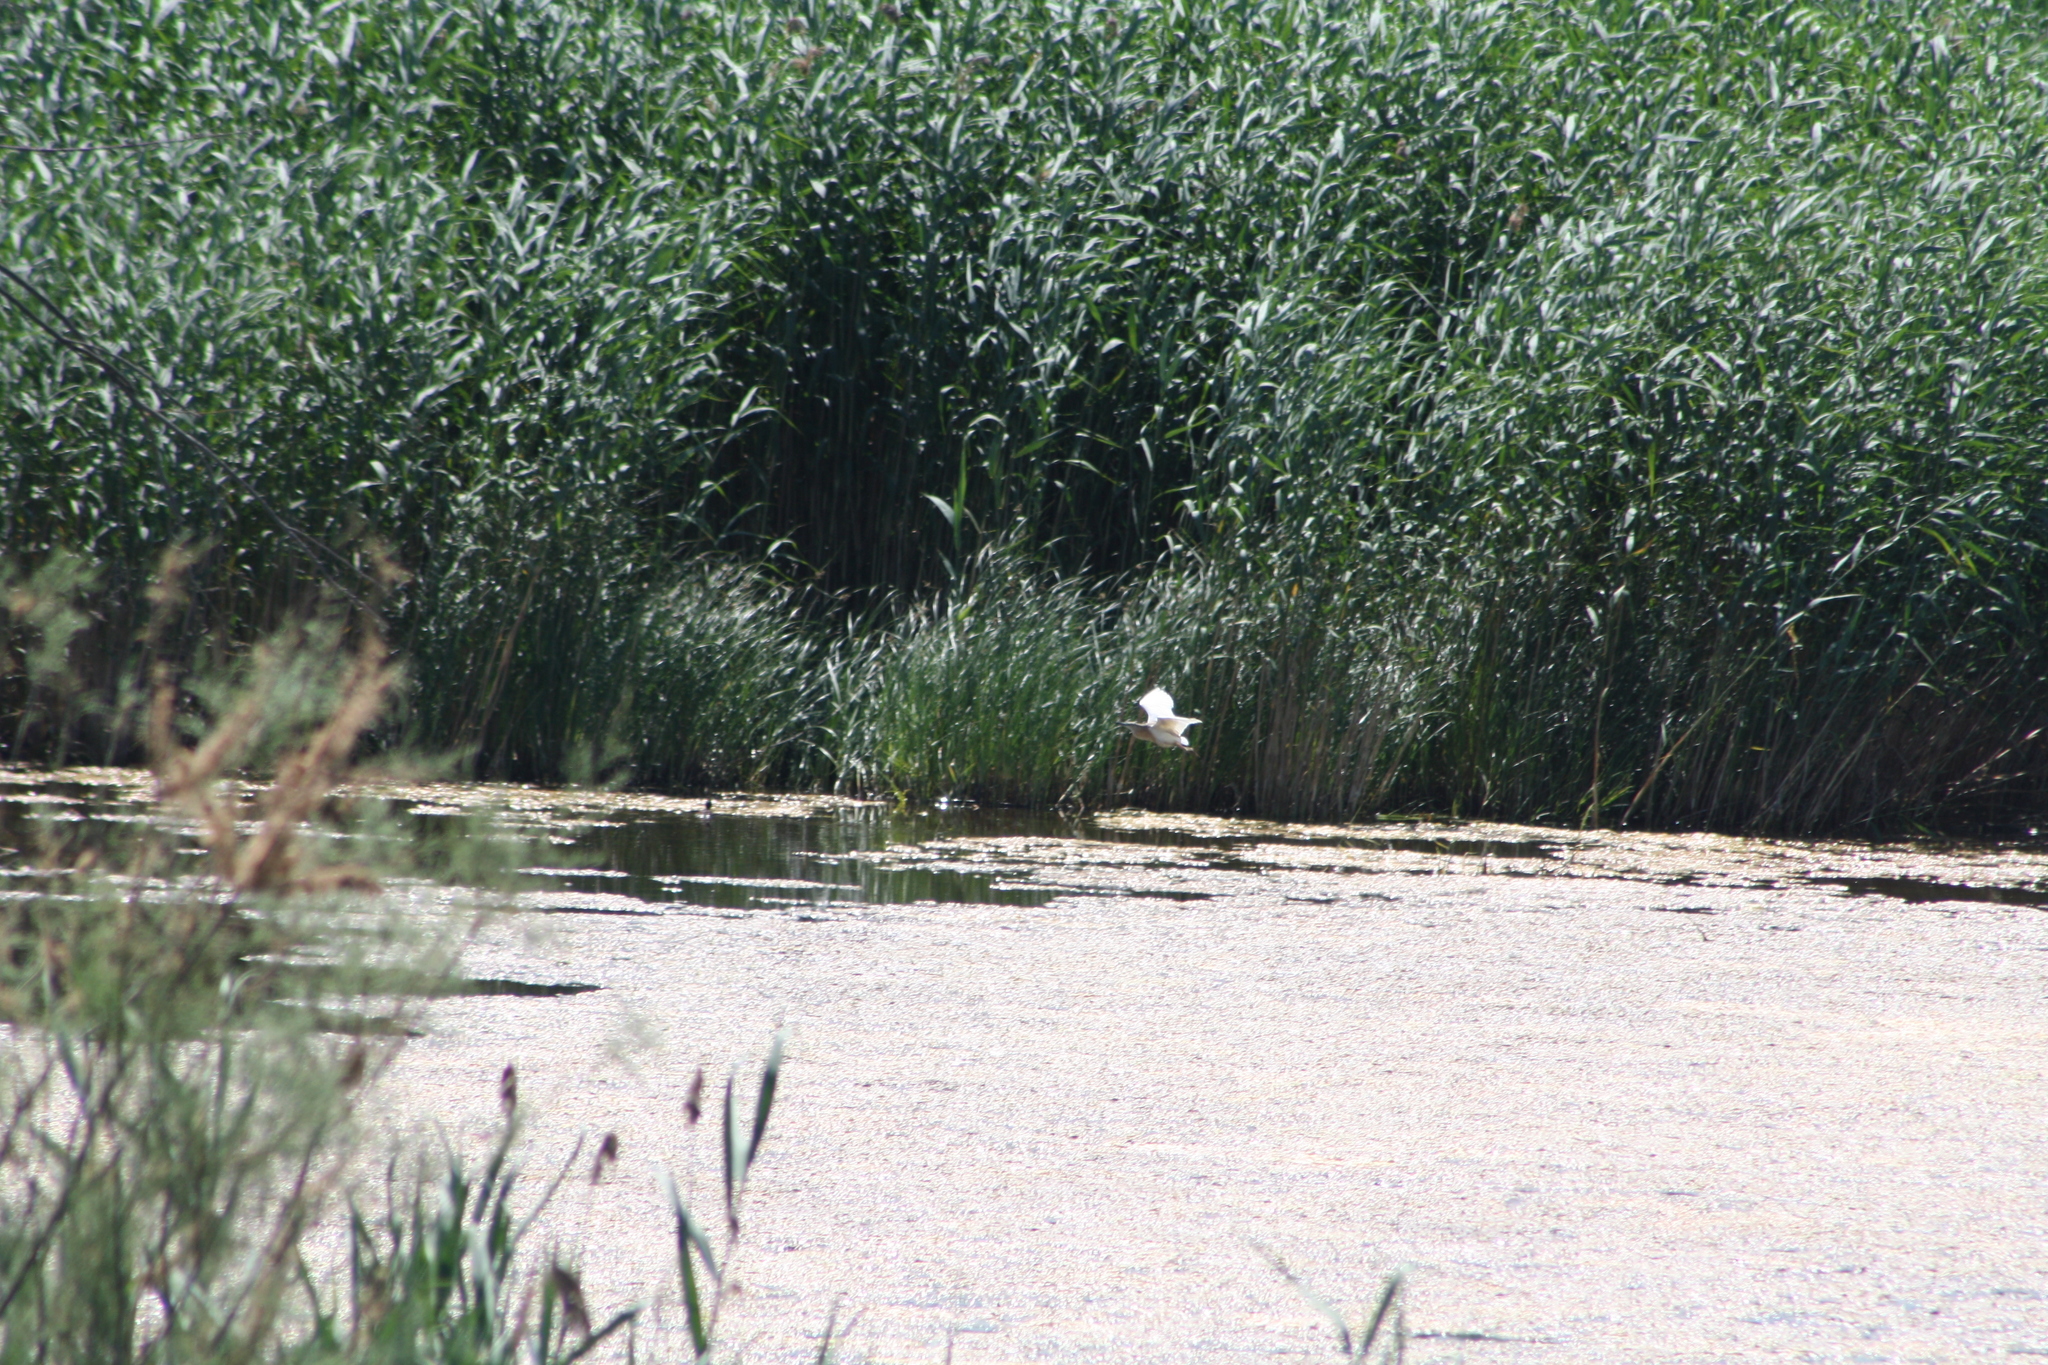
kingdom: Animalia
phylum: Chordata
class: Aves
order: Pelecaniformes
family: Ardeidae
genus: Ardeola
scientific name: Ardeola ralloides
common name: Squacco heron
